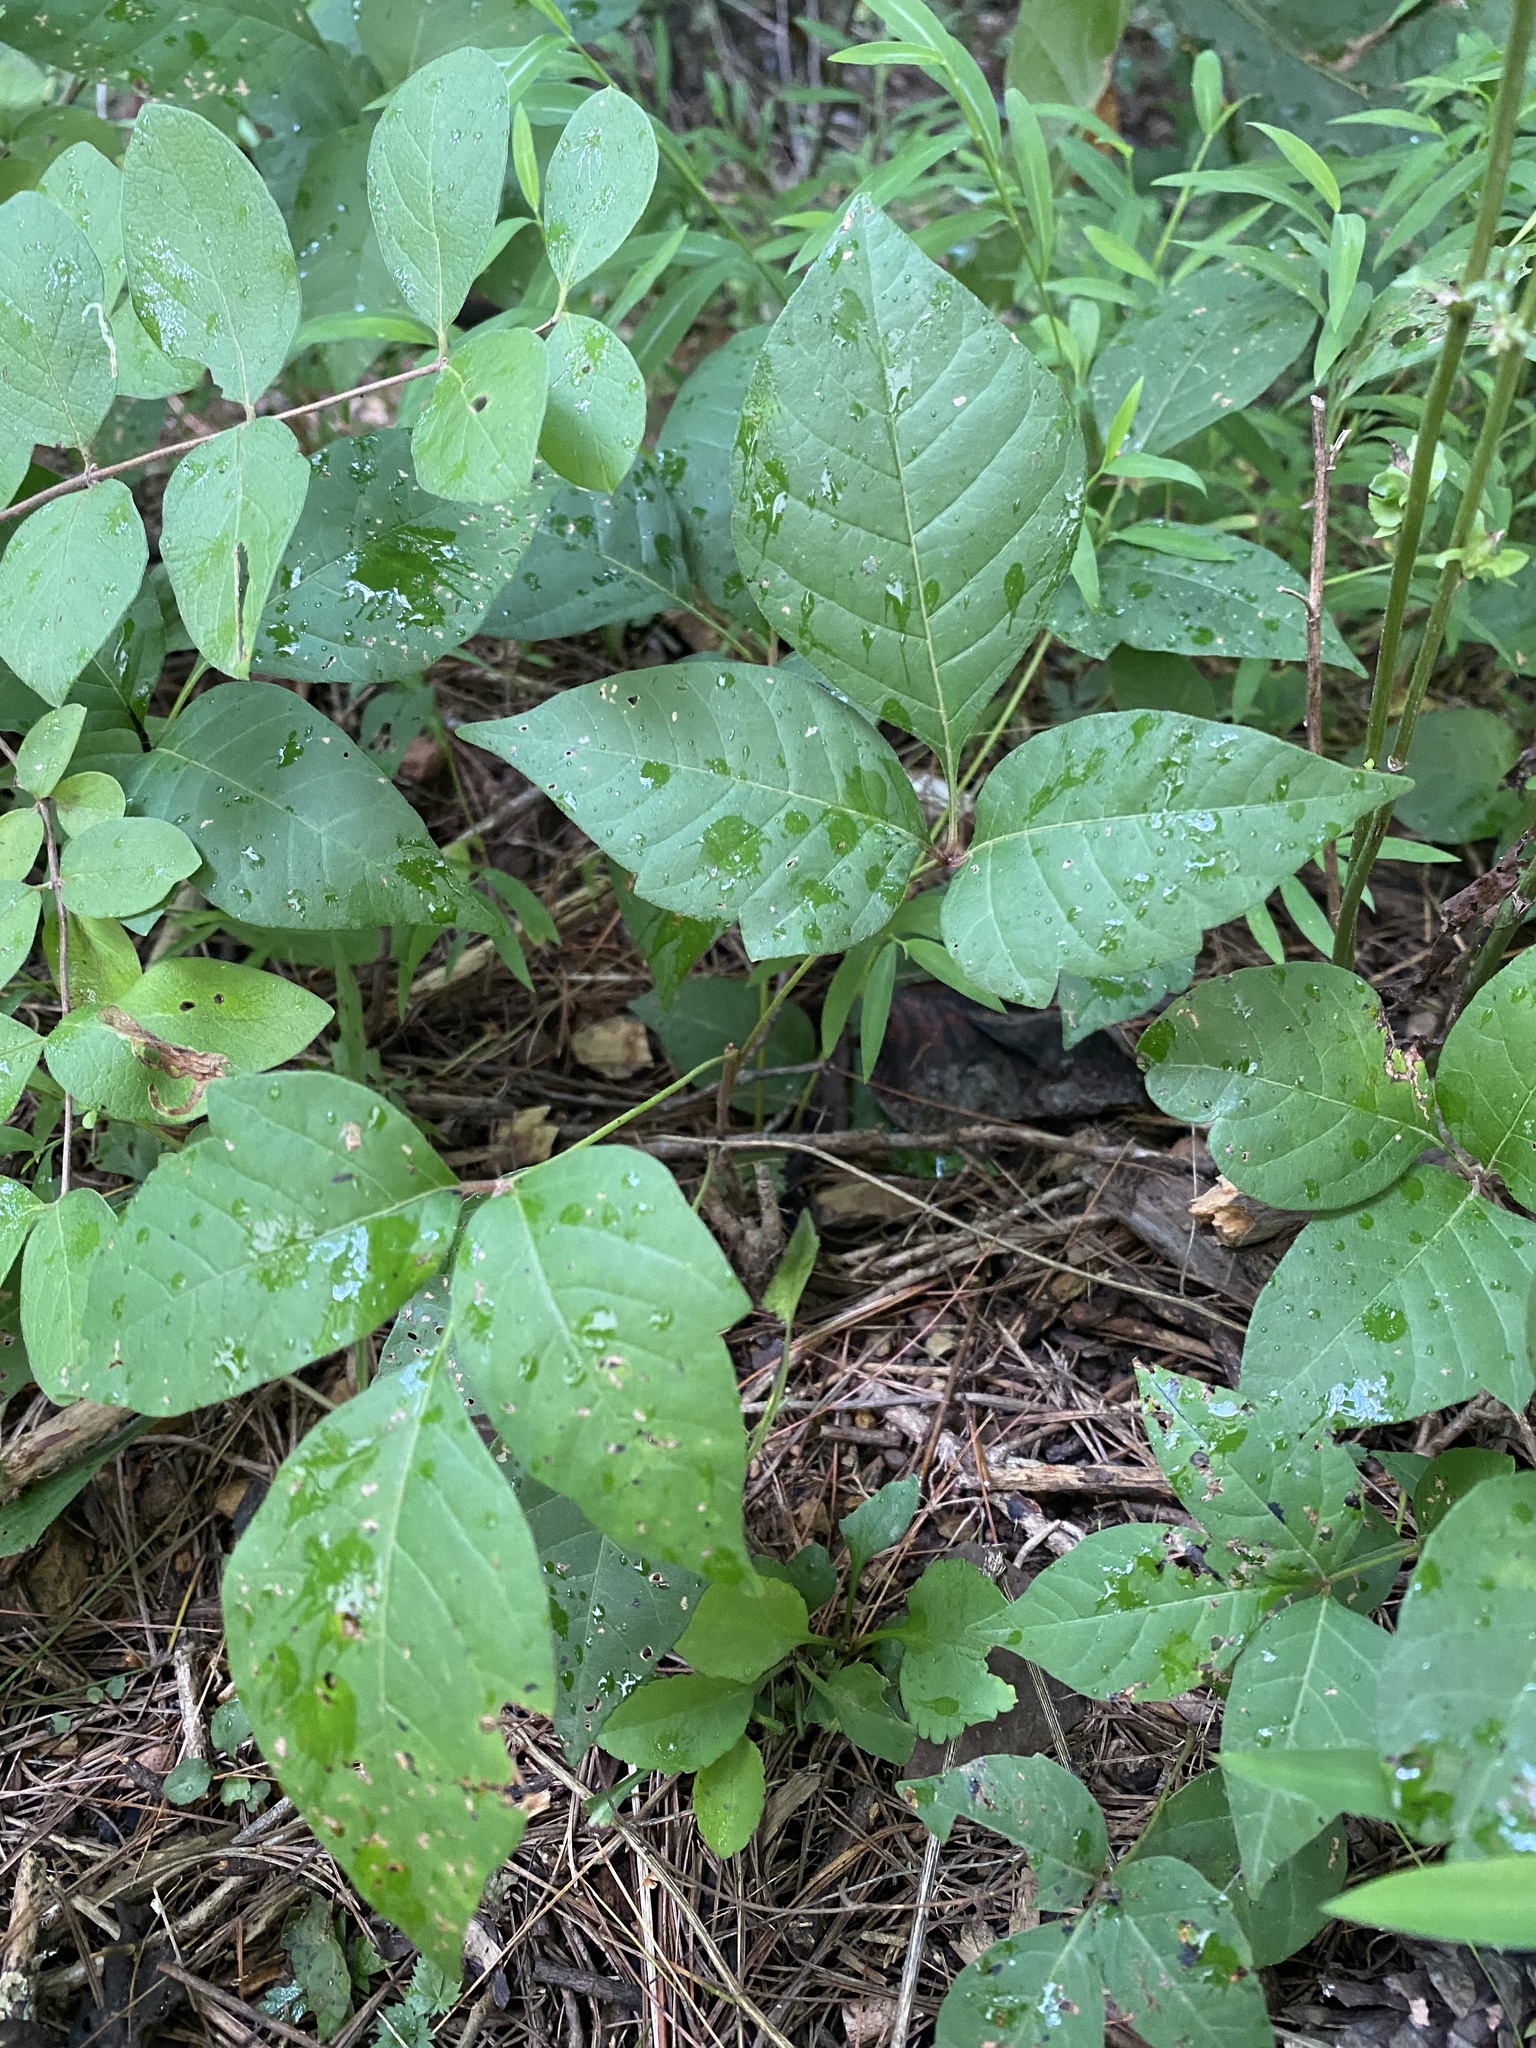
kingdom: Plantae
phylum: Tracheophyta
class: Magnoliopsida
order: Sapindales
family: Anacardiaceae
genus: Toxicodendron
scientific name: Toxicodendron radicans
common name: Poison ivy
